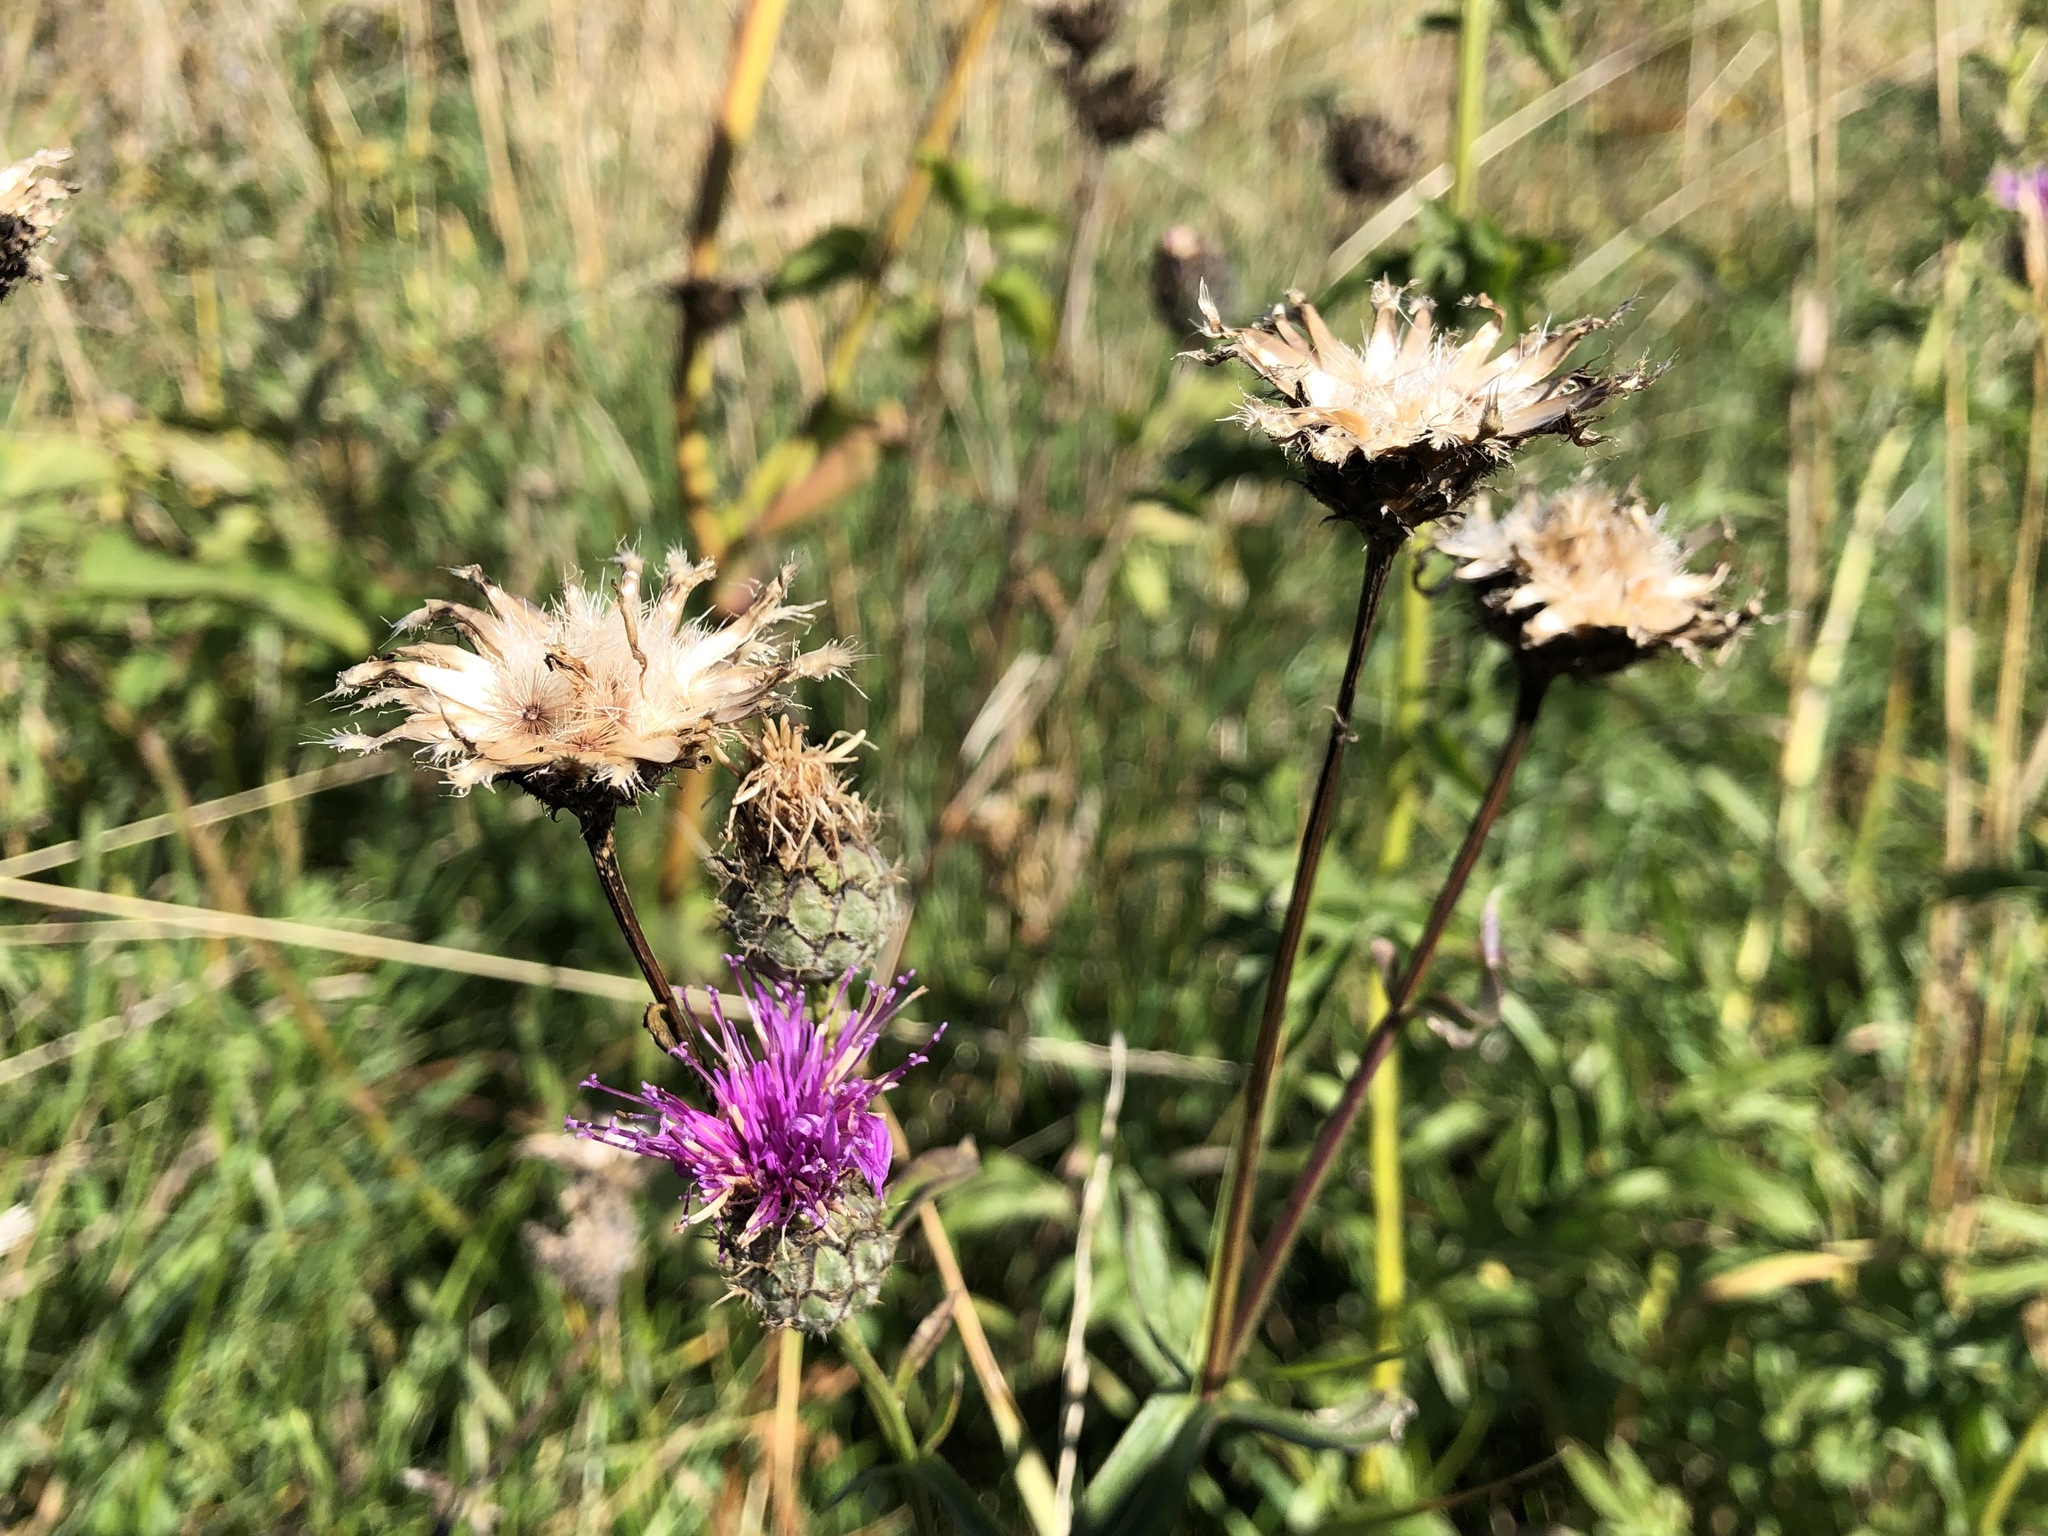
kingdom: Plantae
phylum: Tracheophyta
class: Magnoliopsida
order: Asterales
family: Asteraceae
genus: Centaurea
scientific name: Centaurea scabiosa
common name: Greater knapweed
